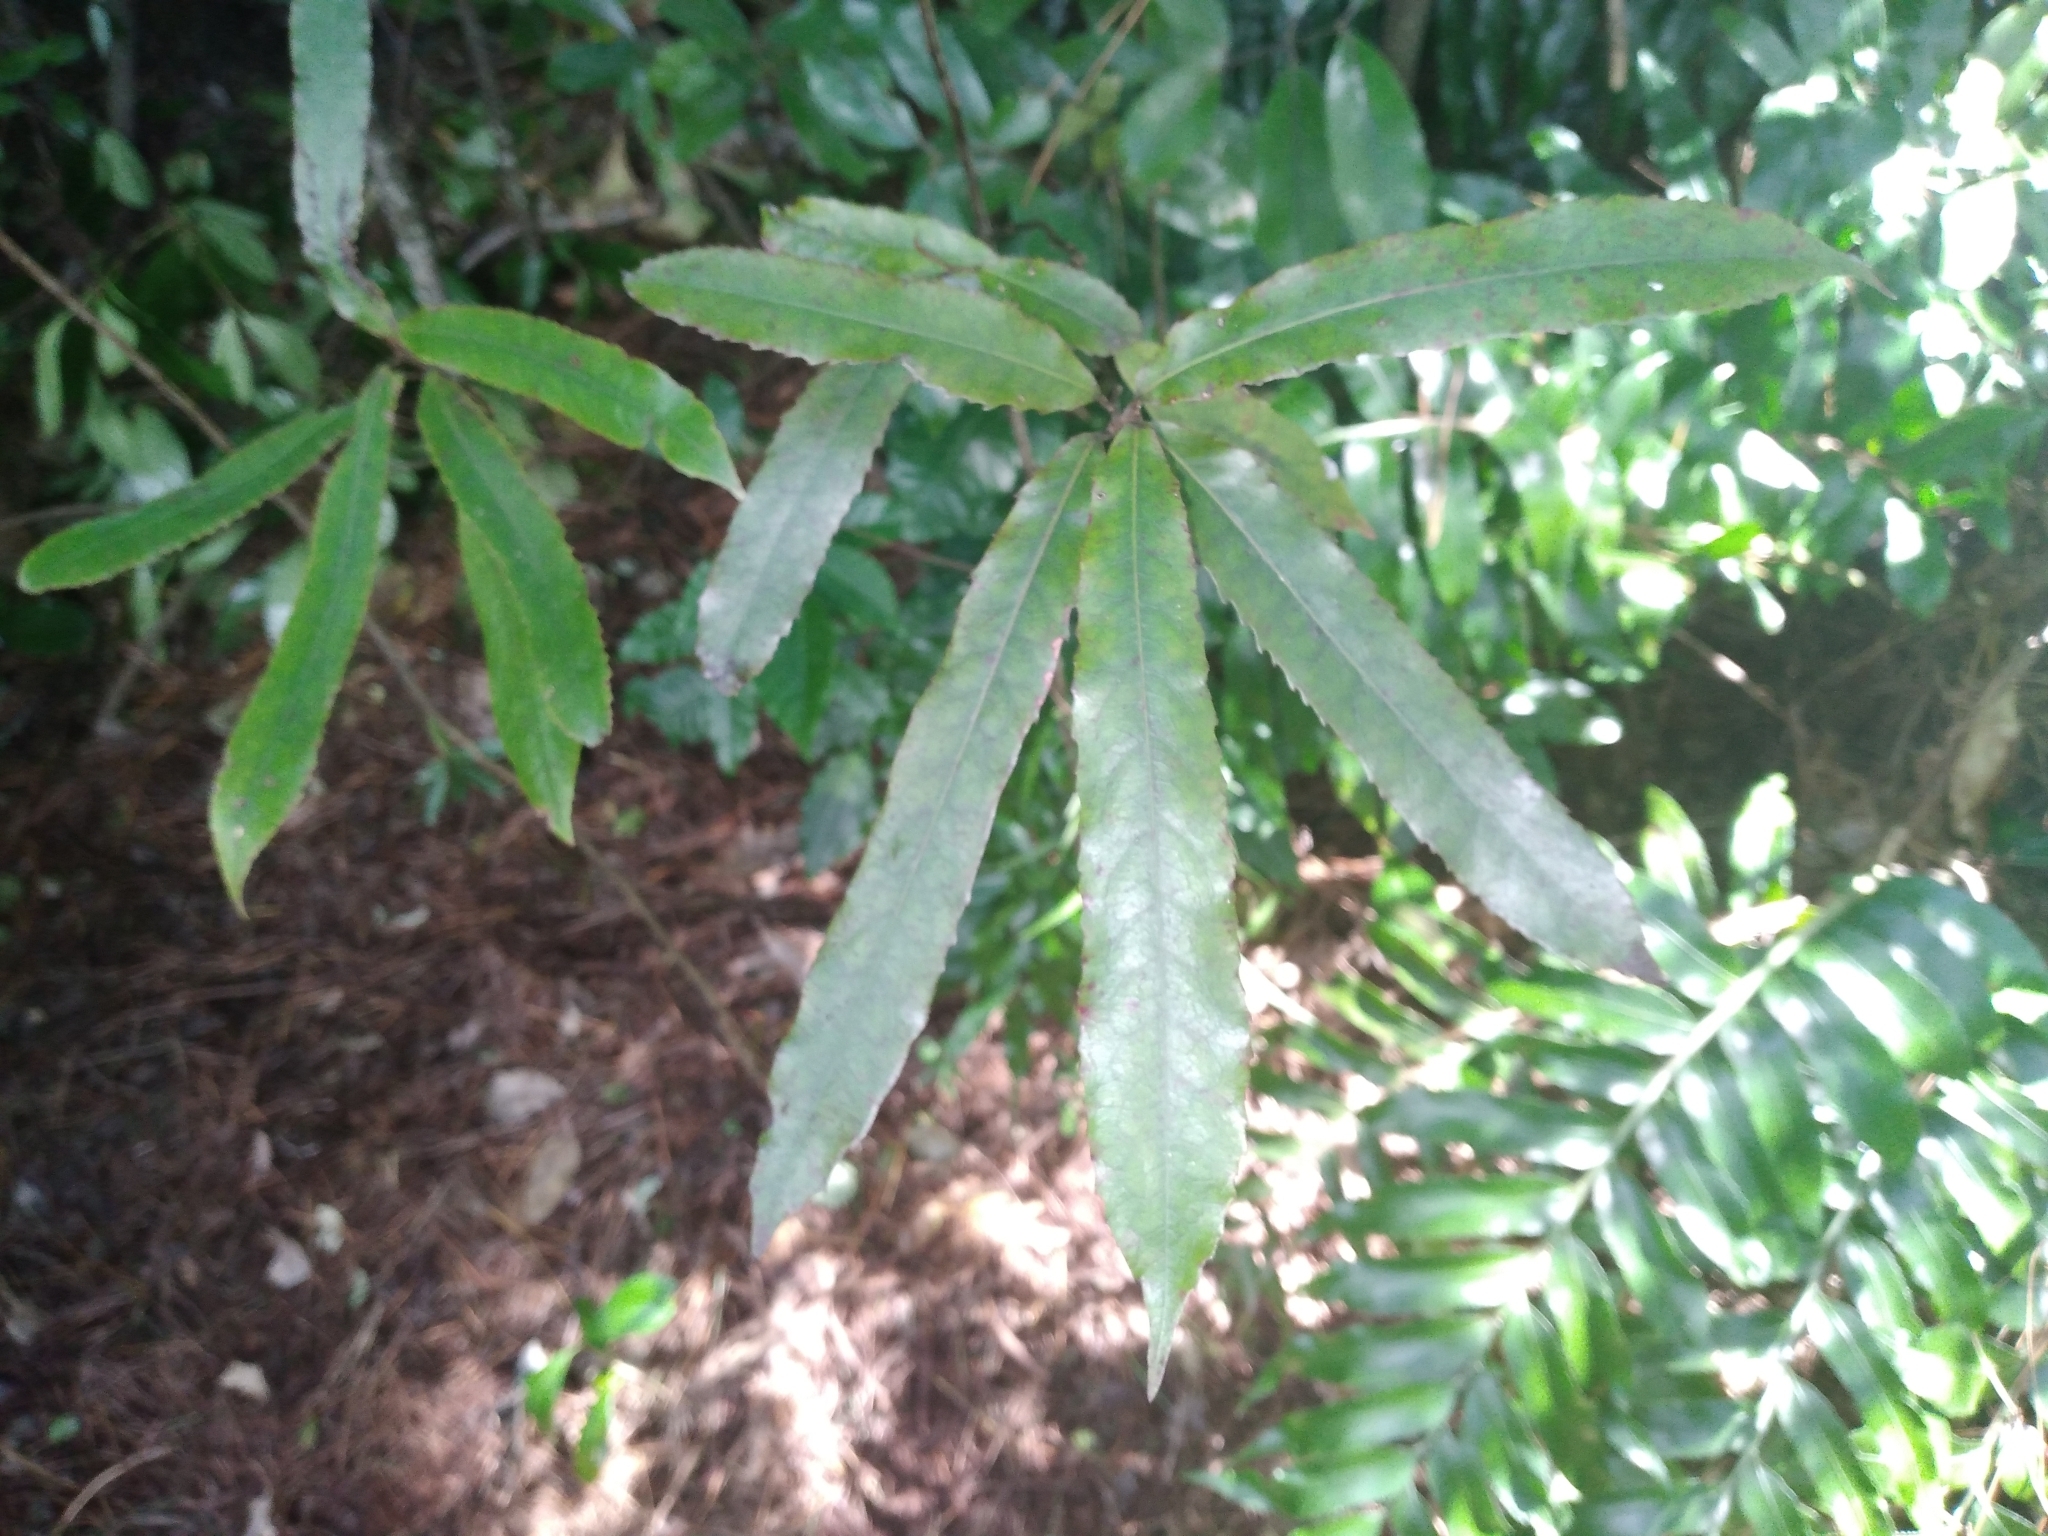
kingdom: Plantae
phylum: Tracheophyta
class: Magnoliopsida
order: Oxalidales
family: Elaeocarpaceae
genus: Elaeocarpus
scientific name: Elaeocarpus dentatus
